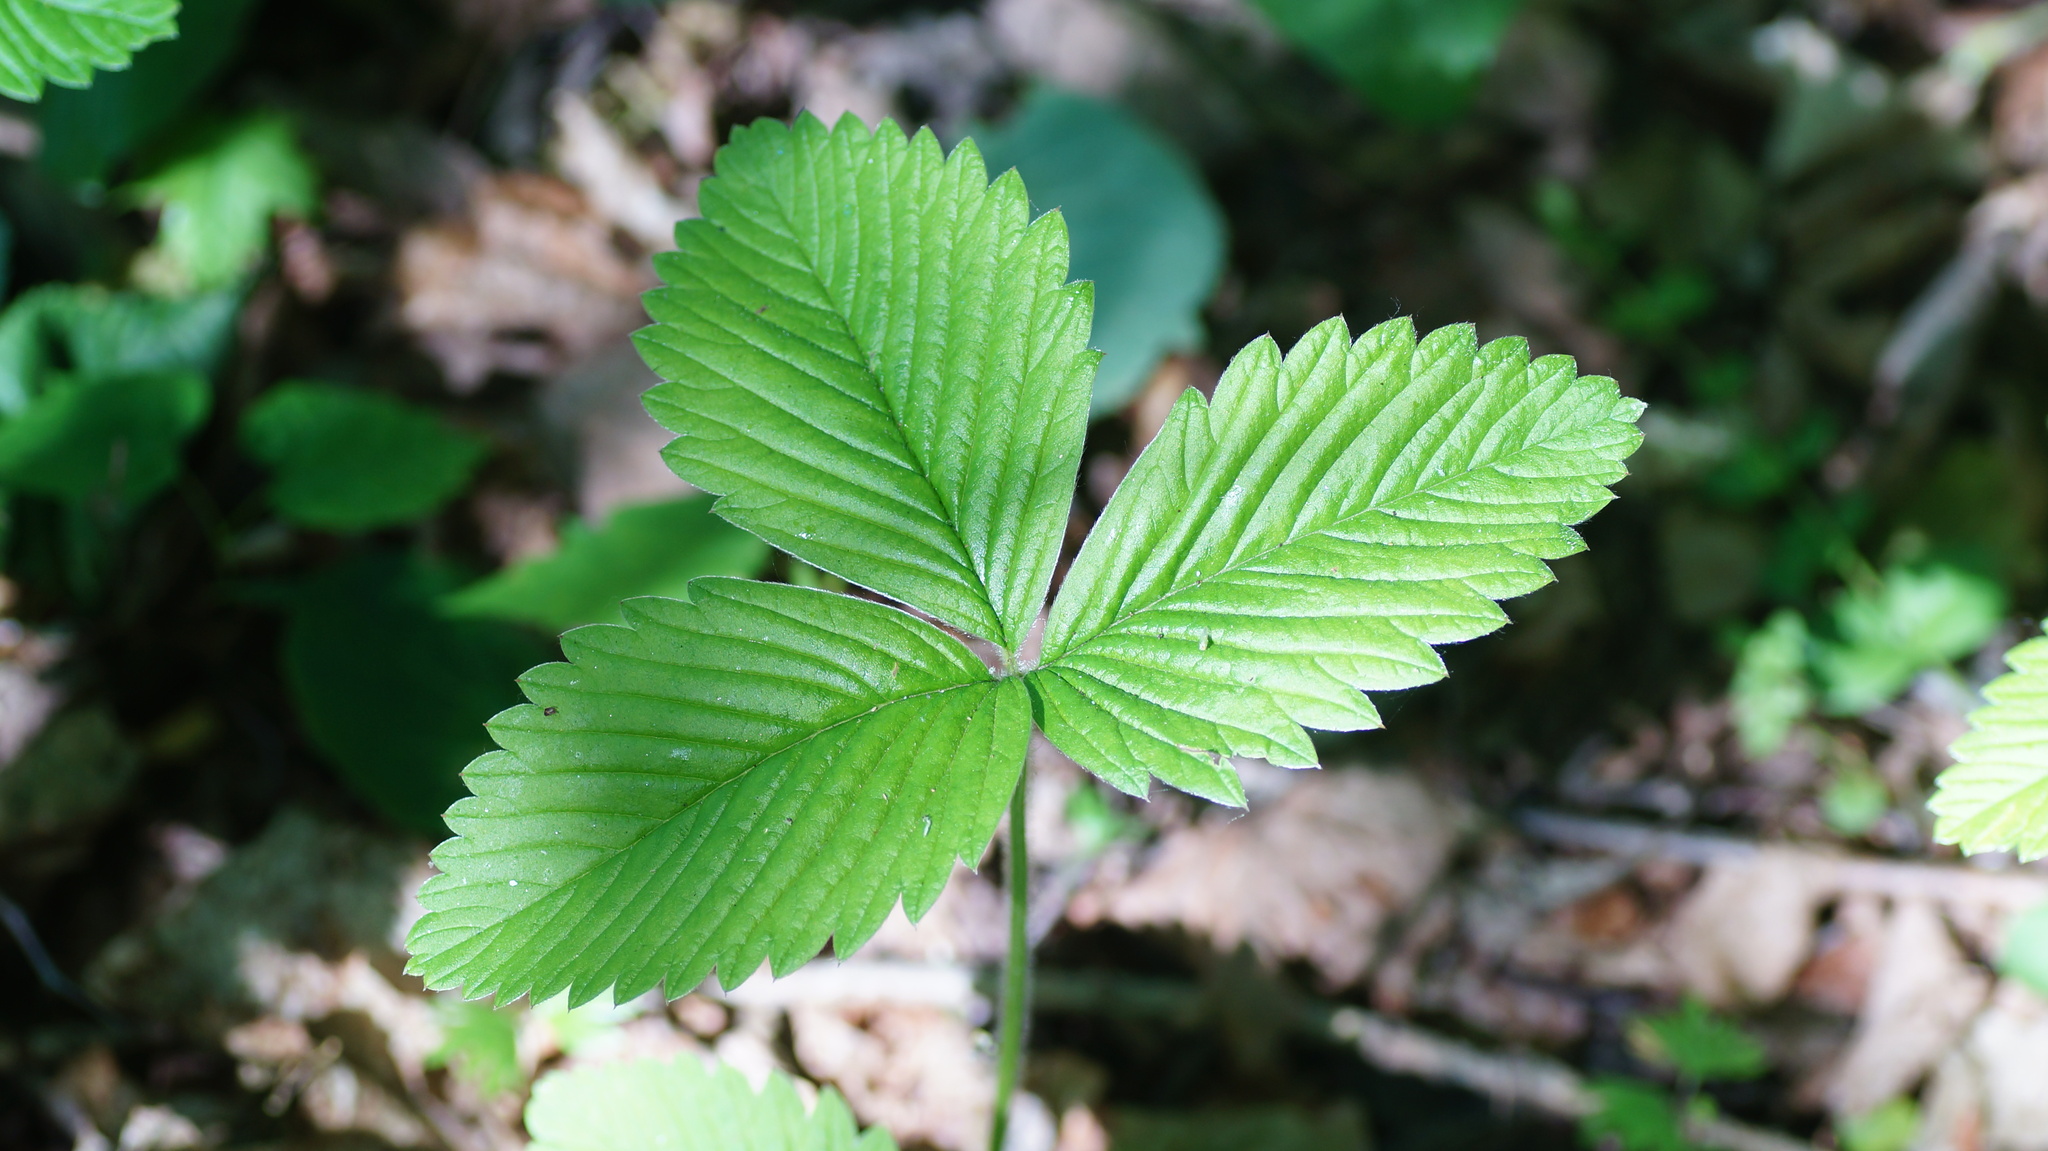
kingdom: Plantae
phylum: Tracheophyta
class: Magnoliopsida
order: Rosales
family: Rosaceae
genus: Fragaria
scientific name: Fragaria moschata
